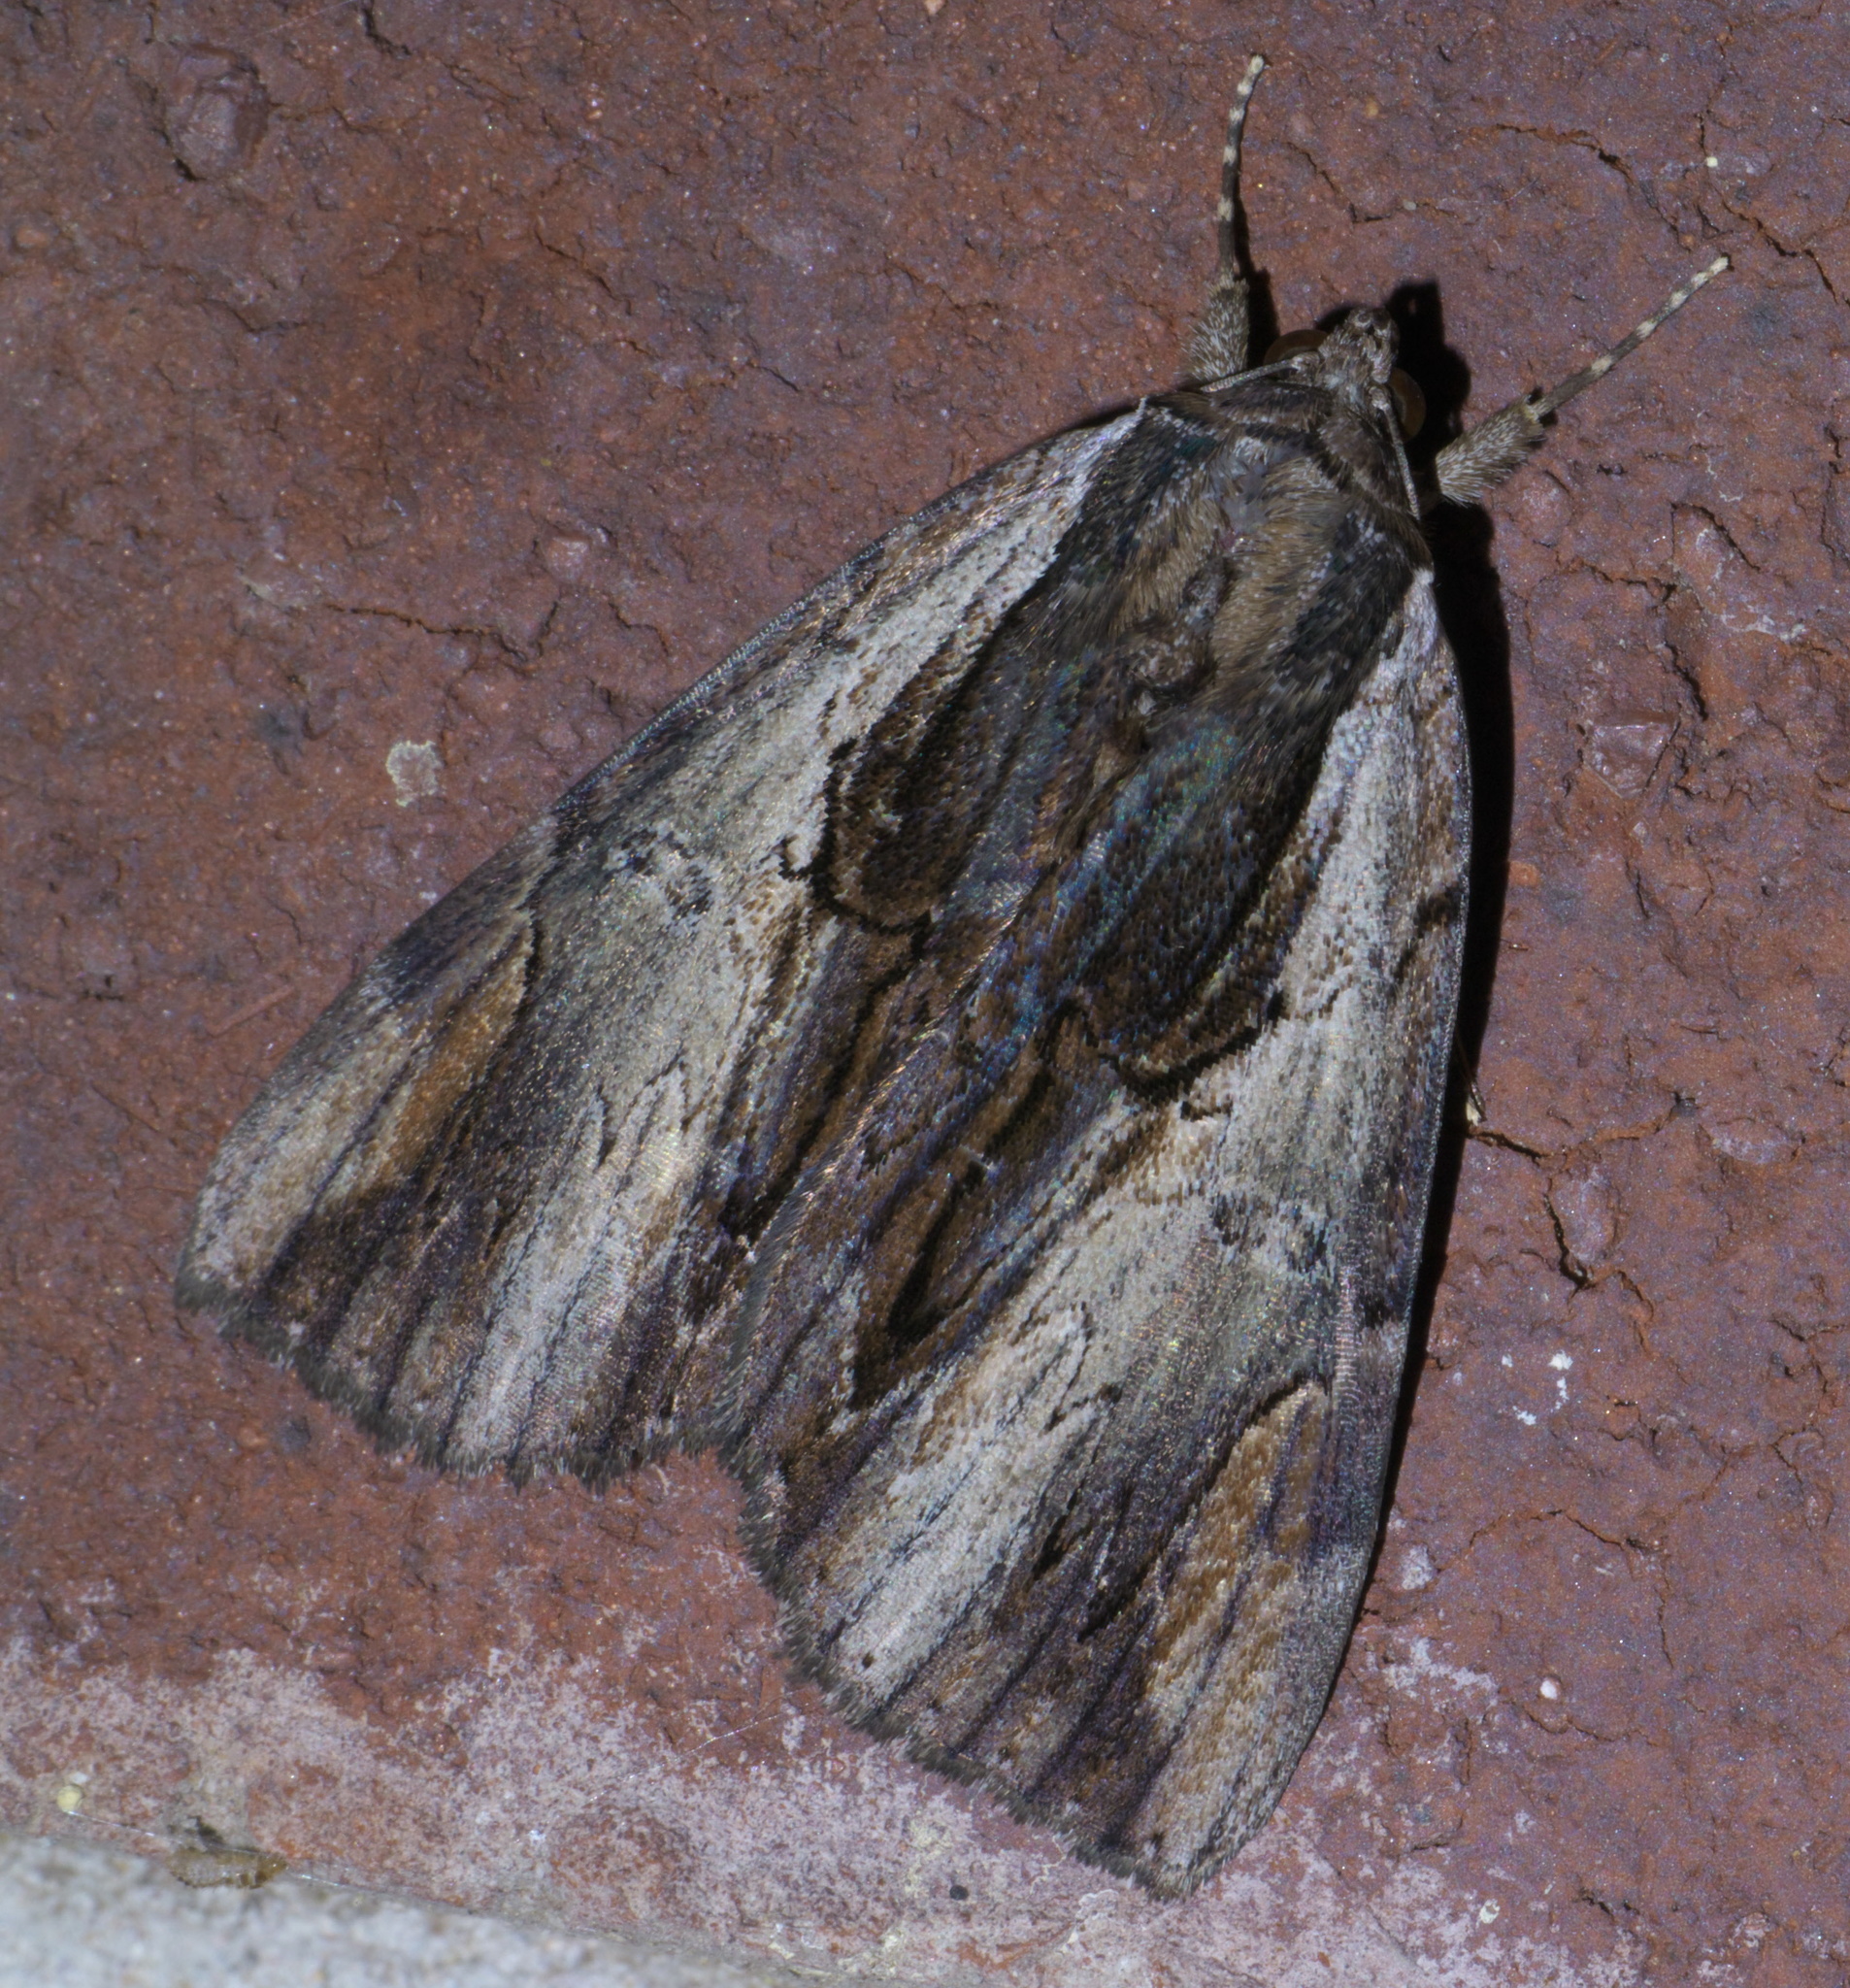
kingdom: Animalia
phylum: Arthropoda
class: Insecta
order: Lepidoptera
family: Erebidae
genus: Catocala
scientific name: Catocala ultronia
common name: Ultronia underwing
